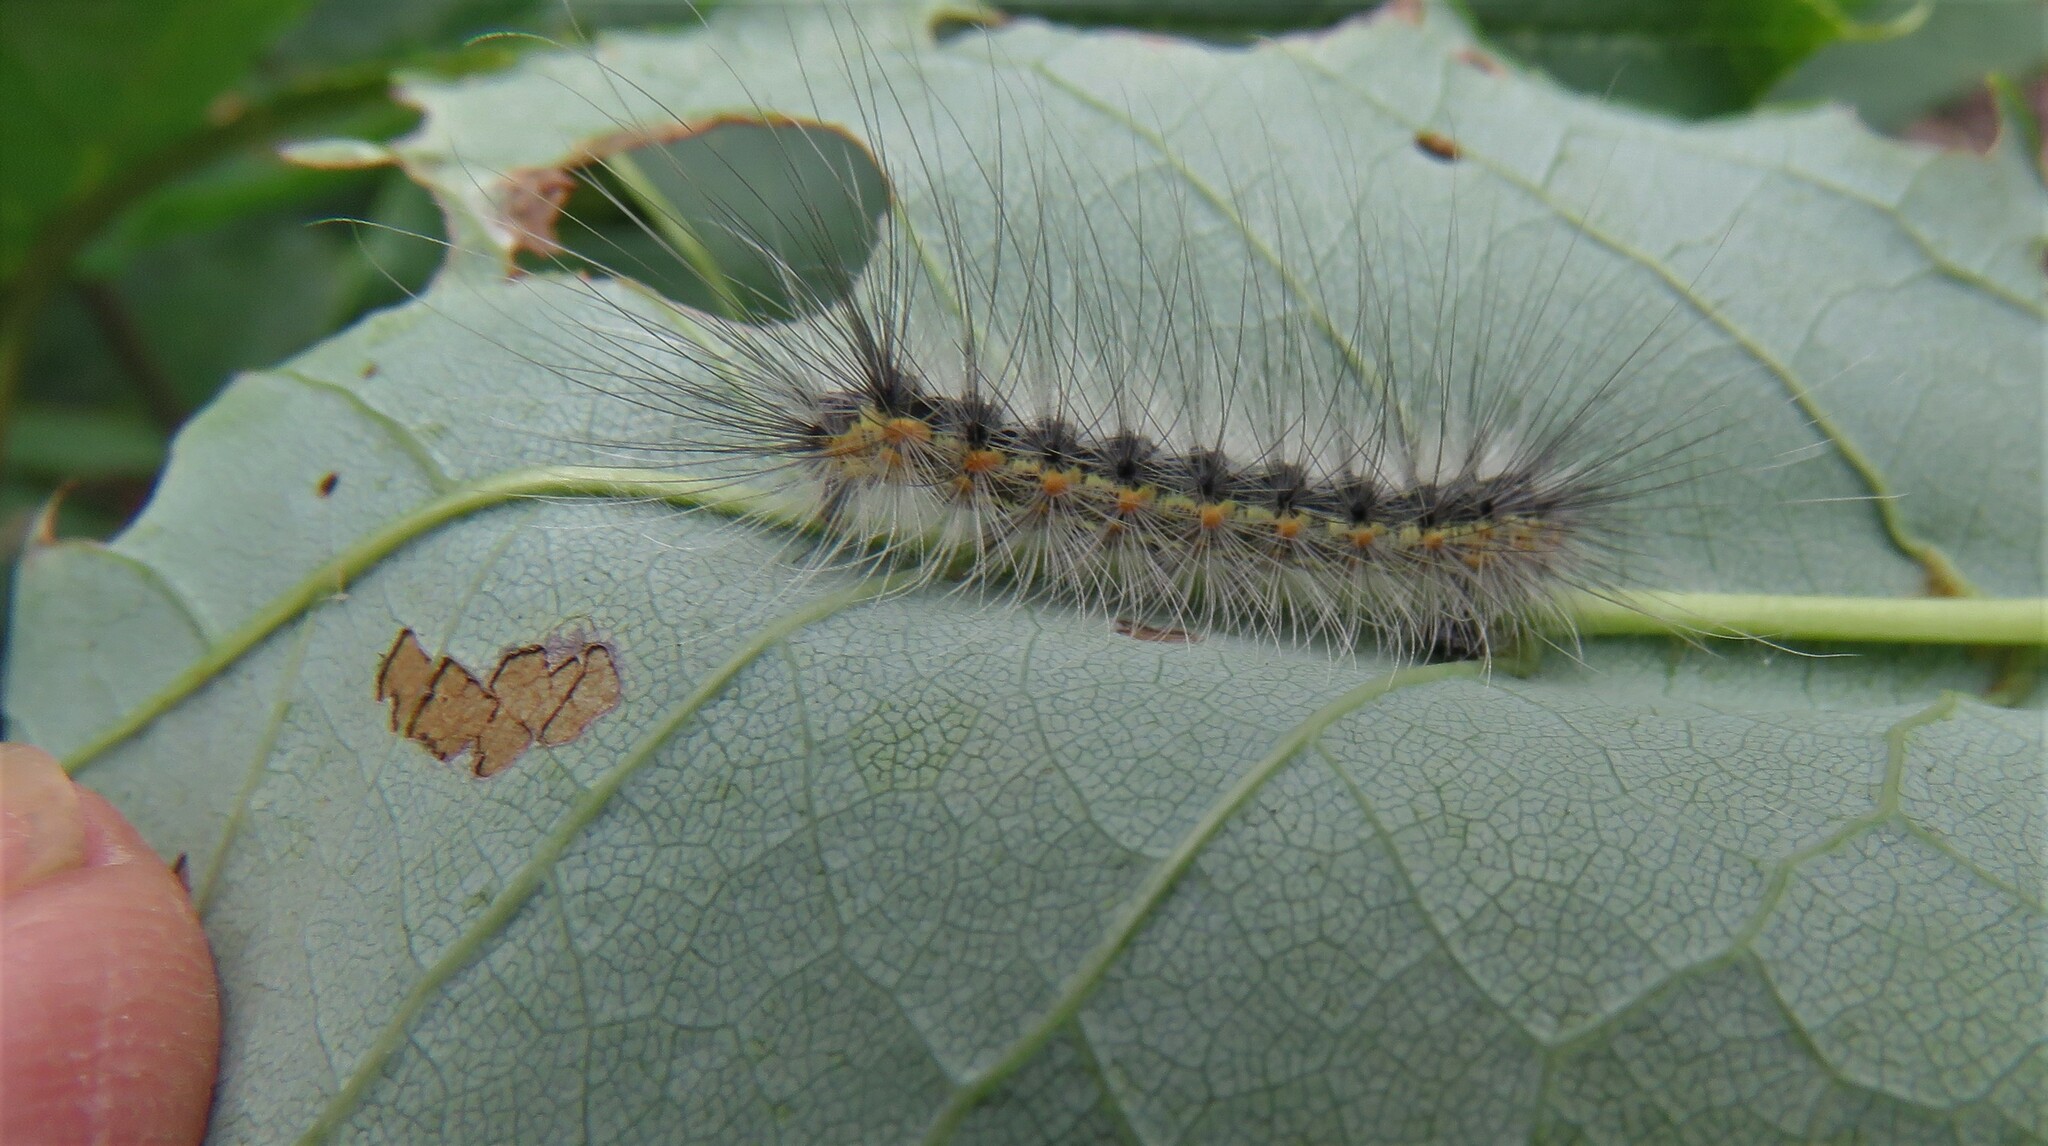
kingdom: Animalia
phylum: Arthropoda
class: Insecta
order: Lepidoptera
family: Erebidae
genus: Hyphantria
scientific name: Hyphantria cunea
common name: American white moth
